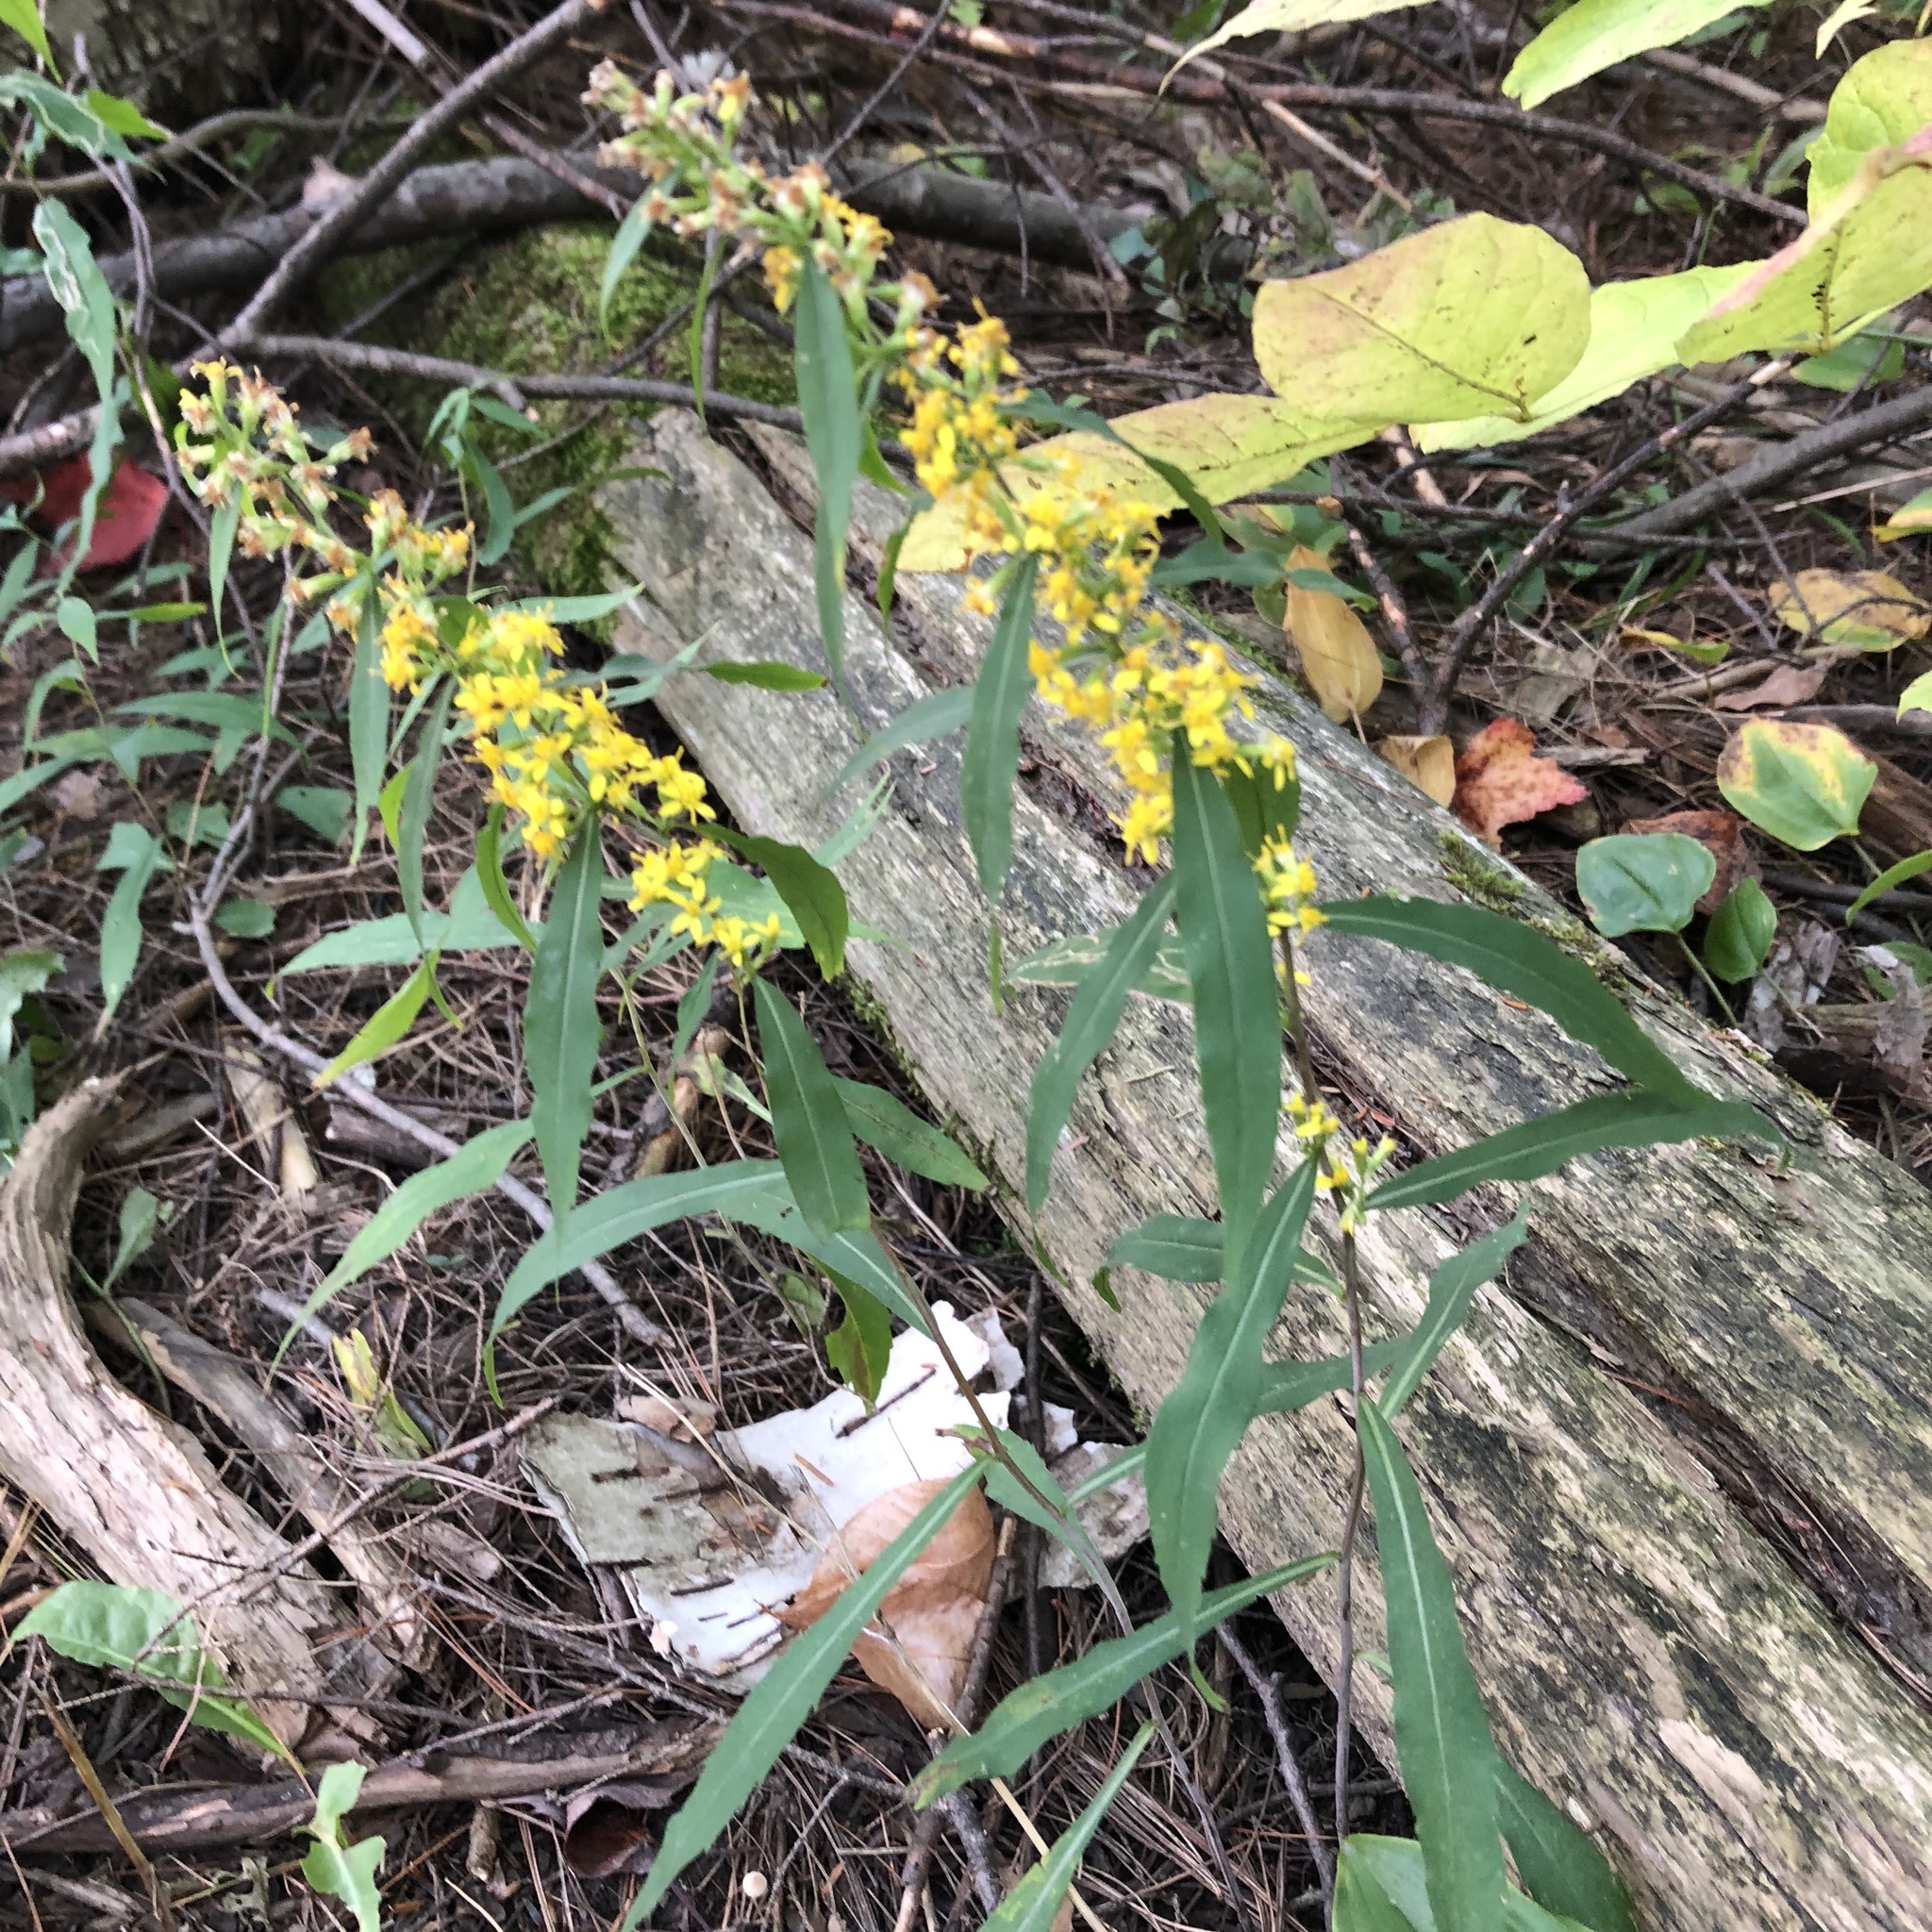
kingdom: Plantae
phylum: Tracheophyta
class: Magnoliopsida
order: Asterales
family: Asteraceae
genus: Solidago
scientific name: Solidago caesia
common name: Woodland goldenrod
